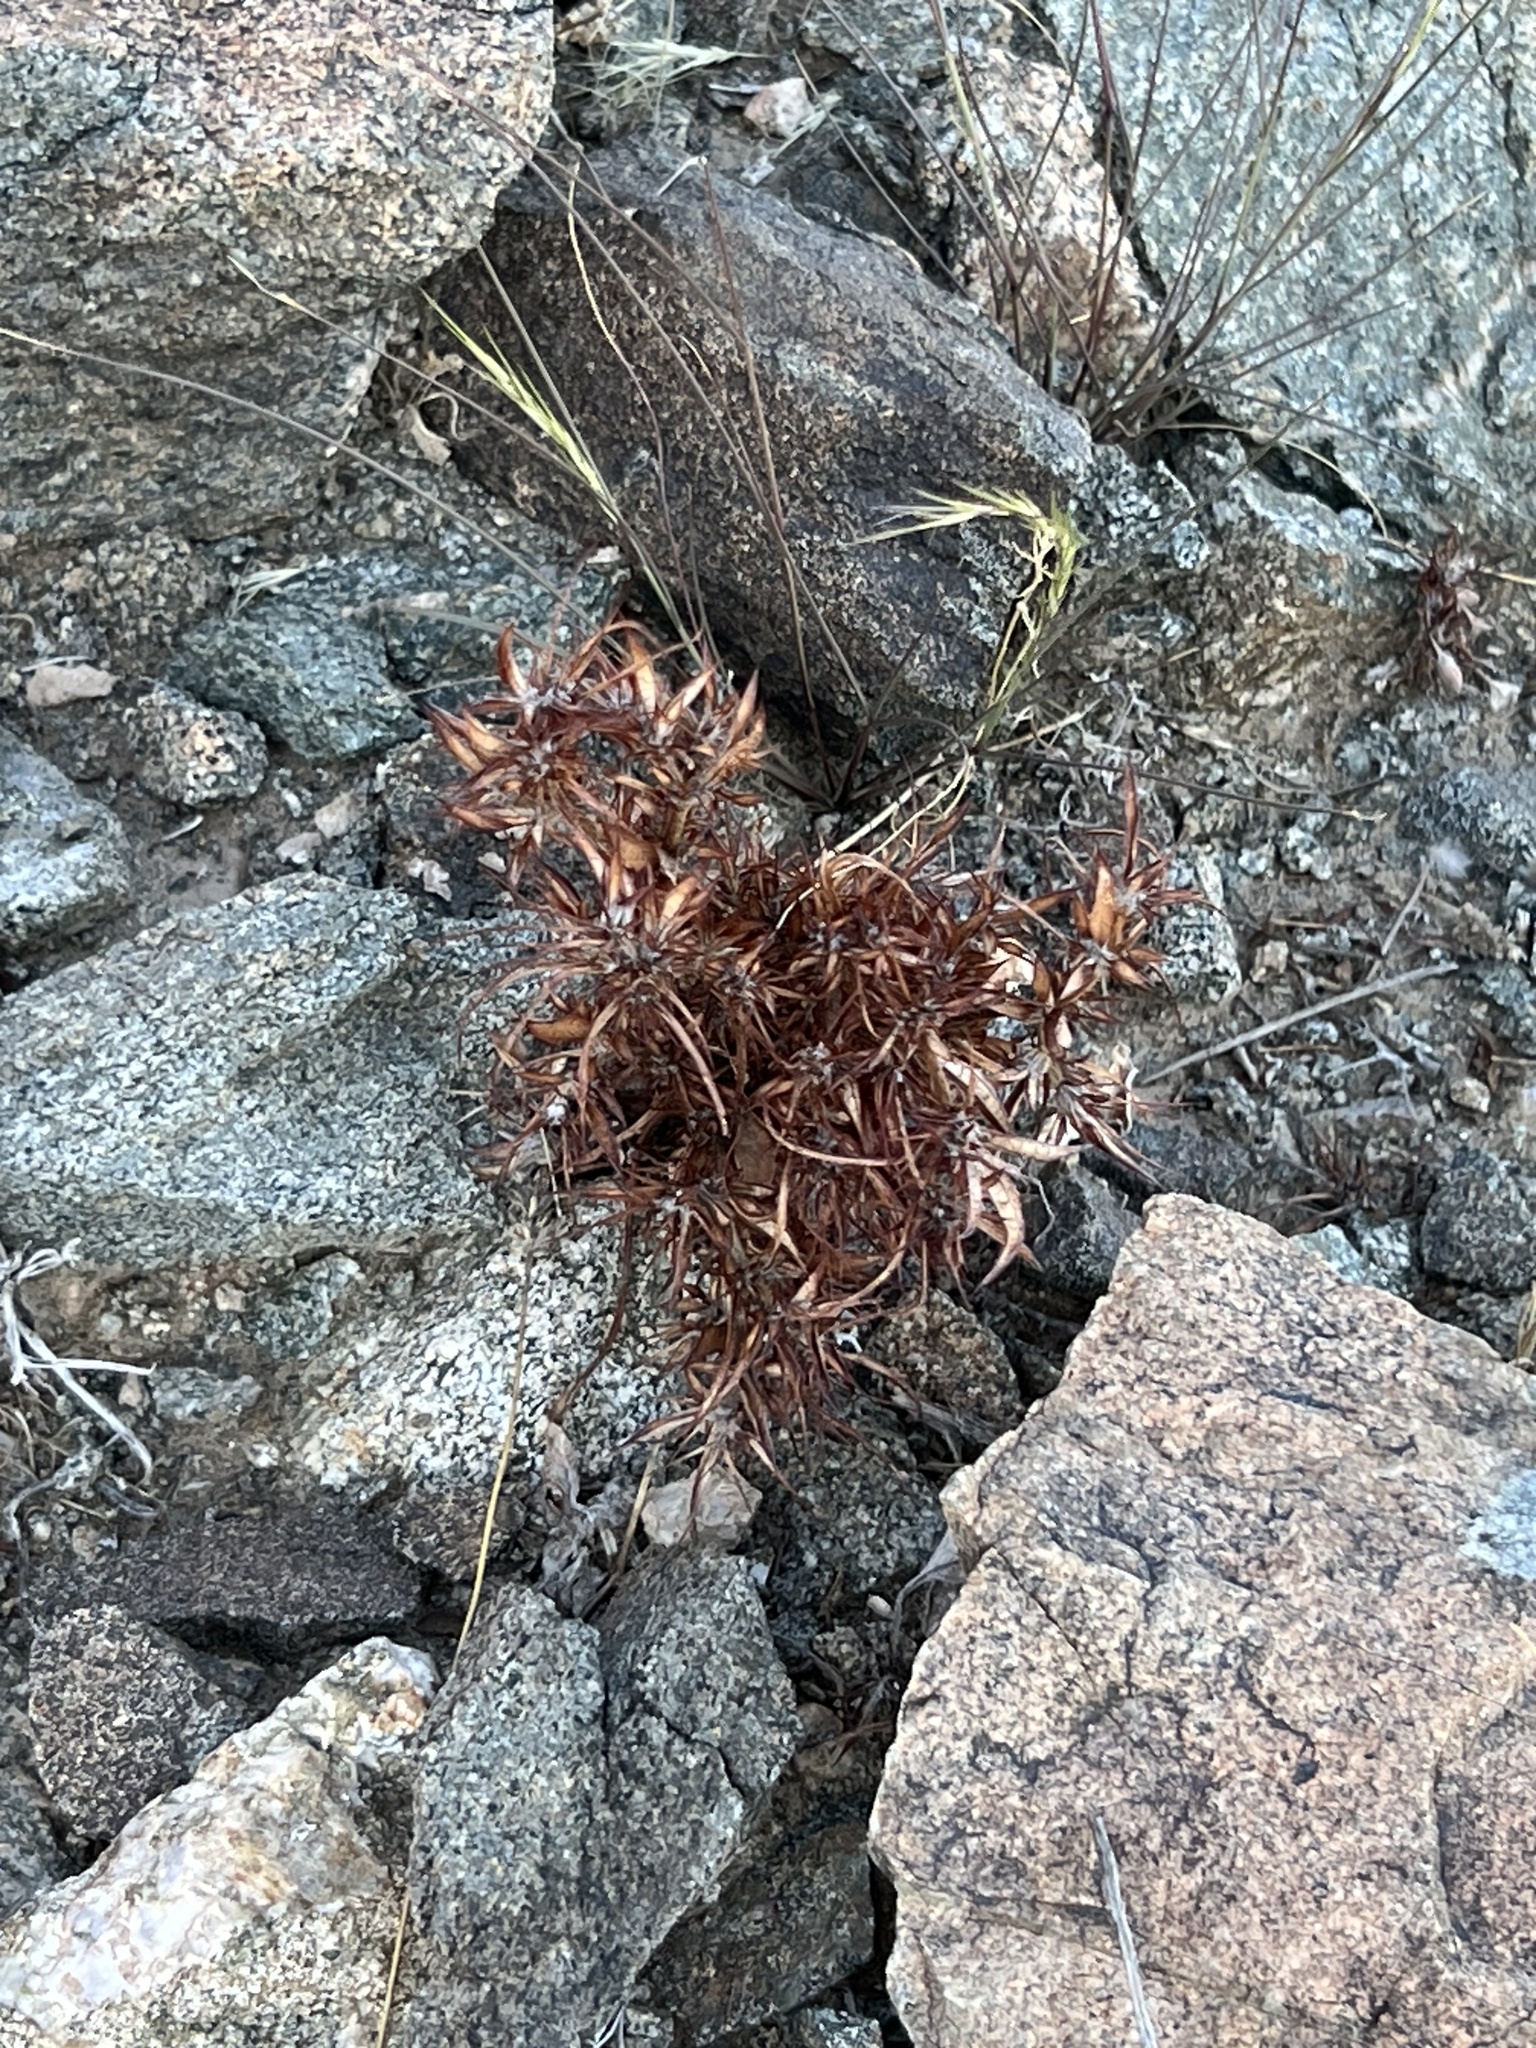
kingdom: Plantae
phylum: Tracheophyta
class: Magnoliopsida
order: Caryophyllales
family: Polygonaceae
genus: Chorizanthe
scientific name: Chorizanthe rigida
